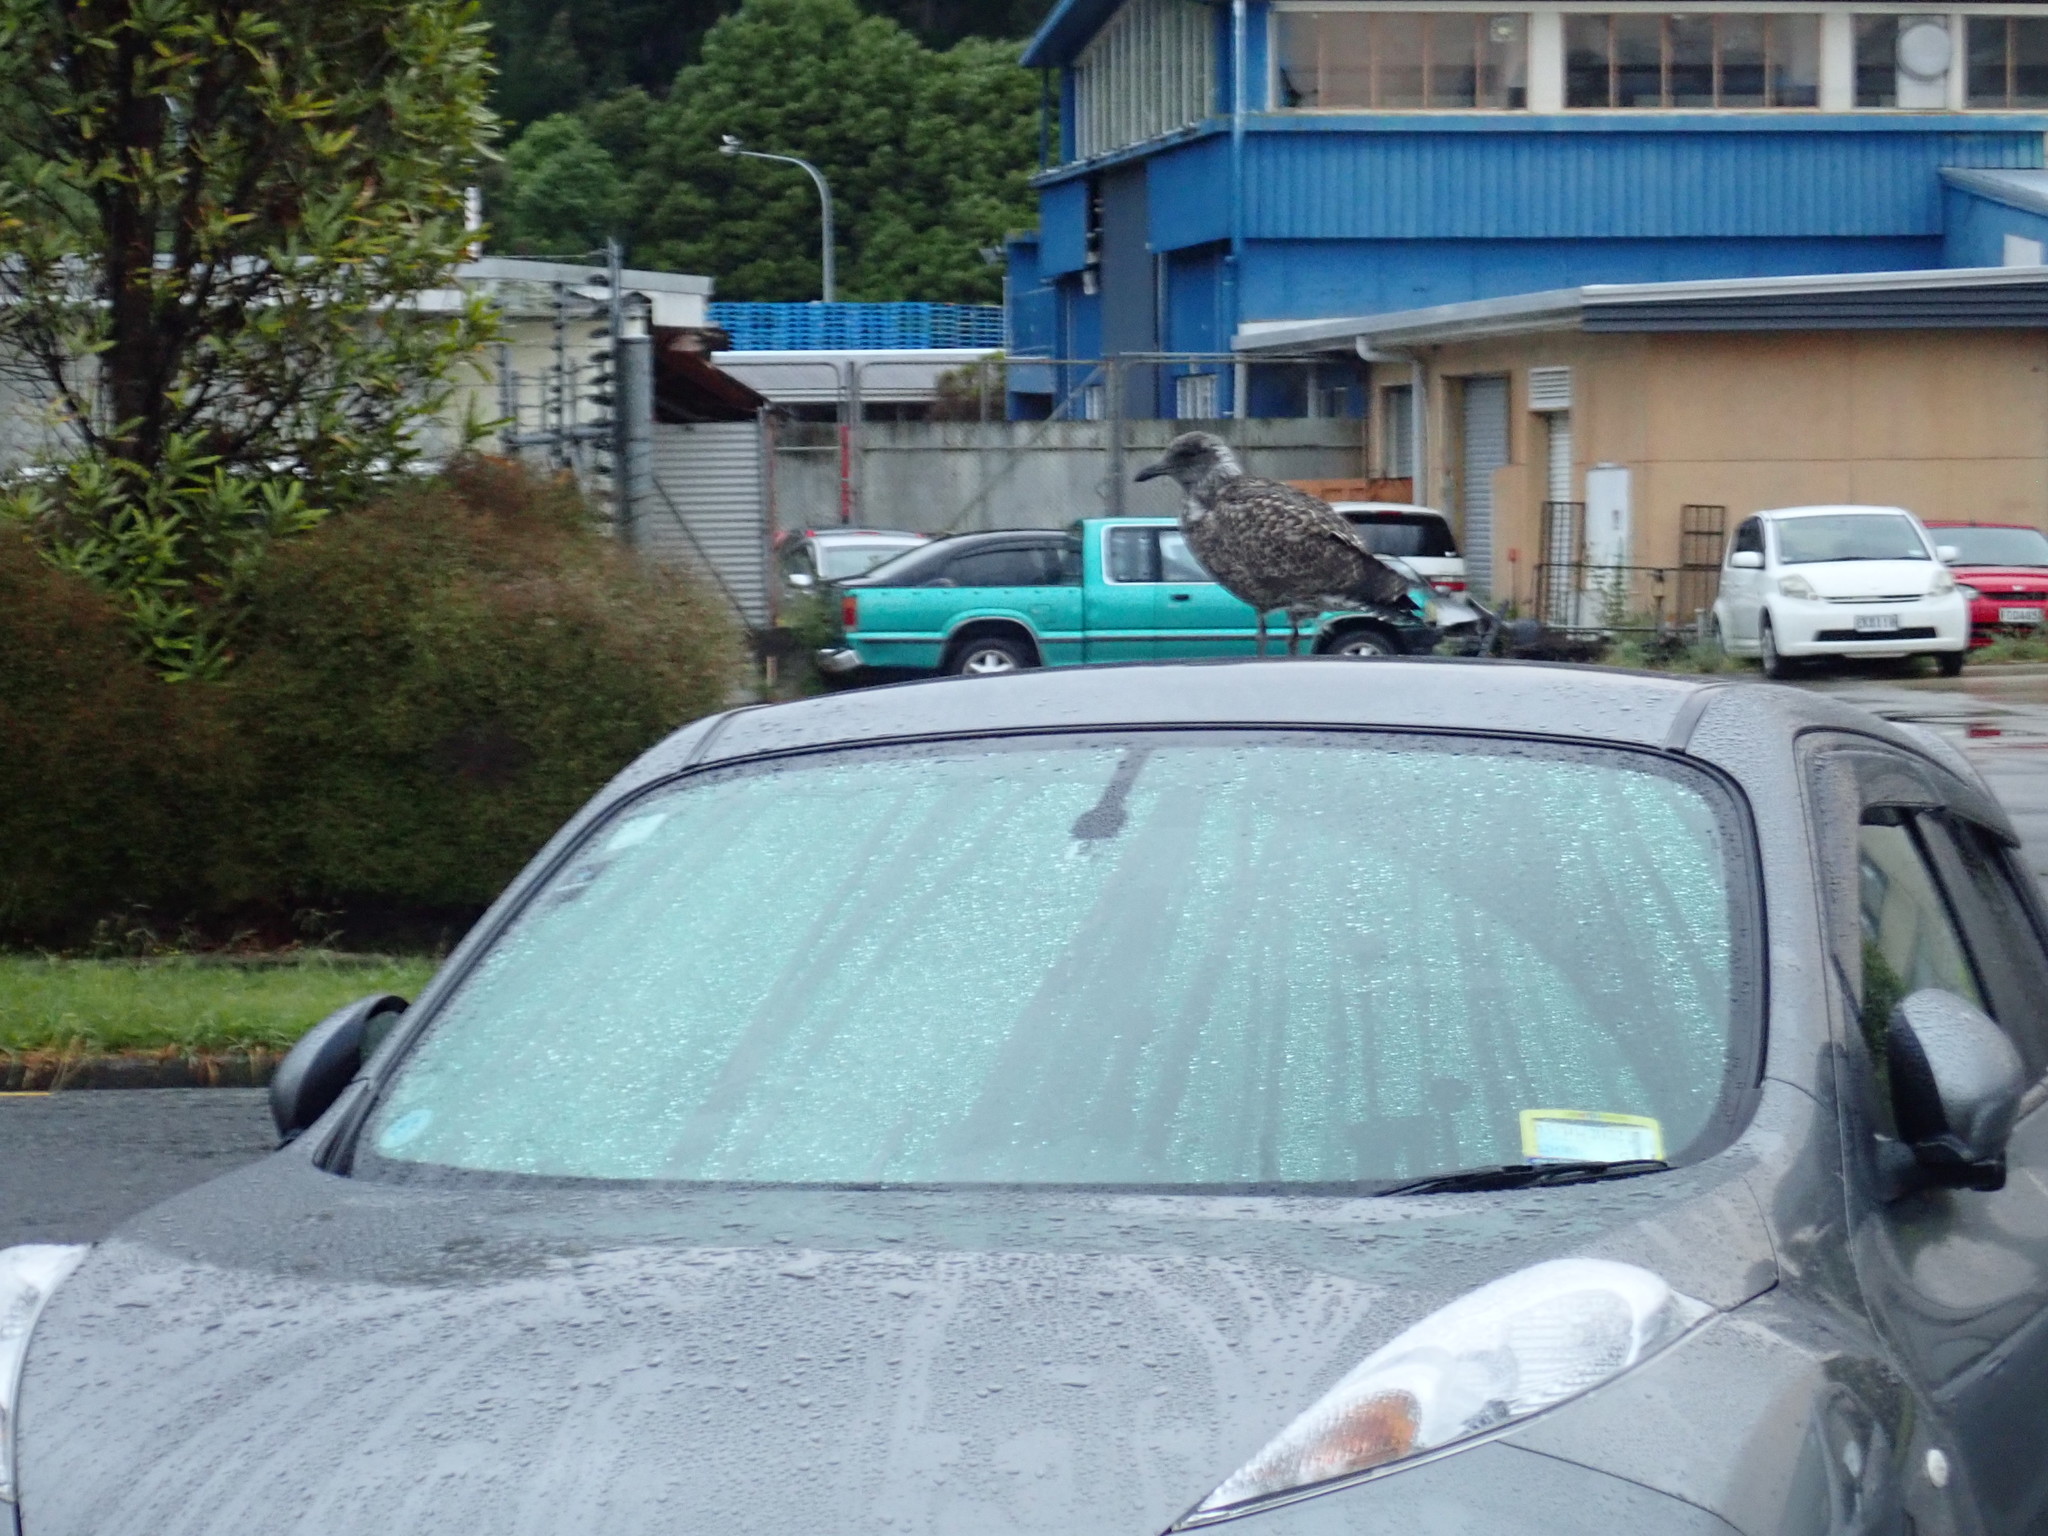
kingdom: Animalia
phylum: Chordata
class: Aves
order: Charadriiformes
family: Laridae
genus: Larus
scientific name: Larus dominicanus
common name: Kelp gull
